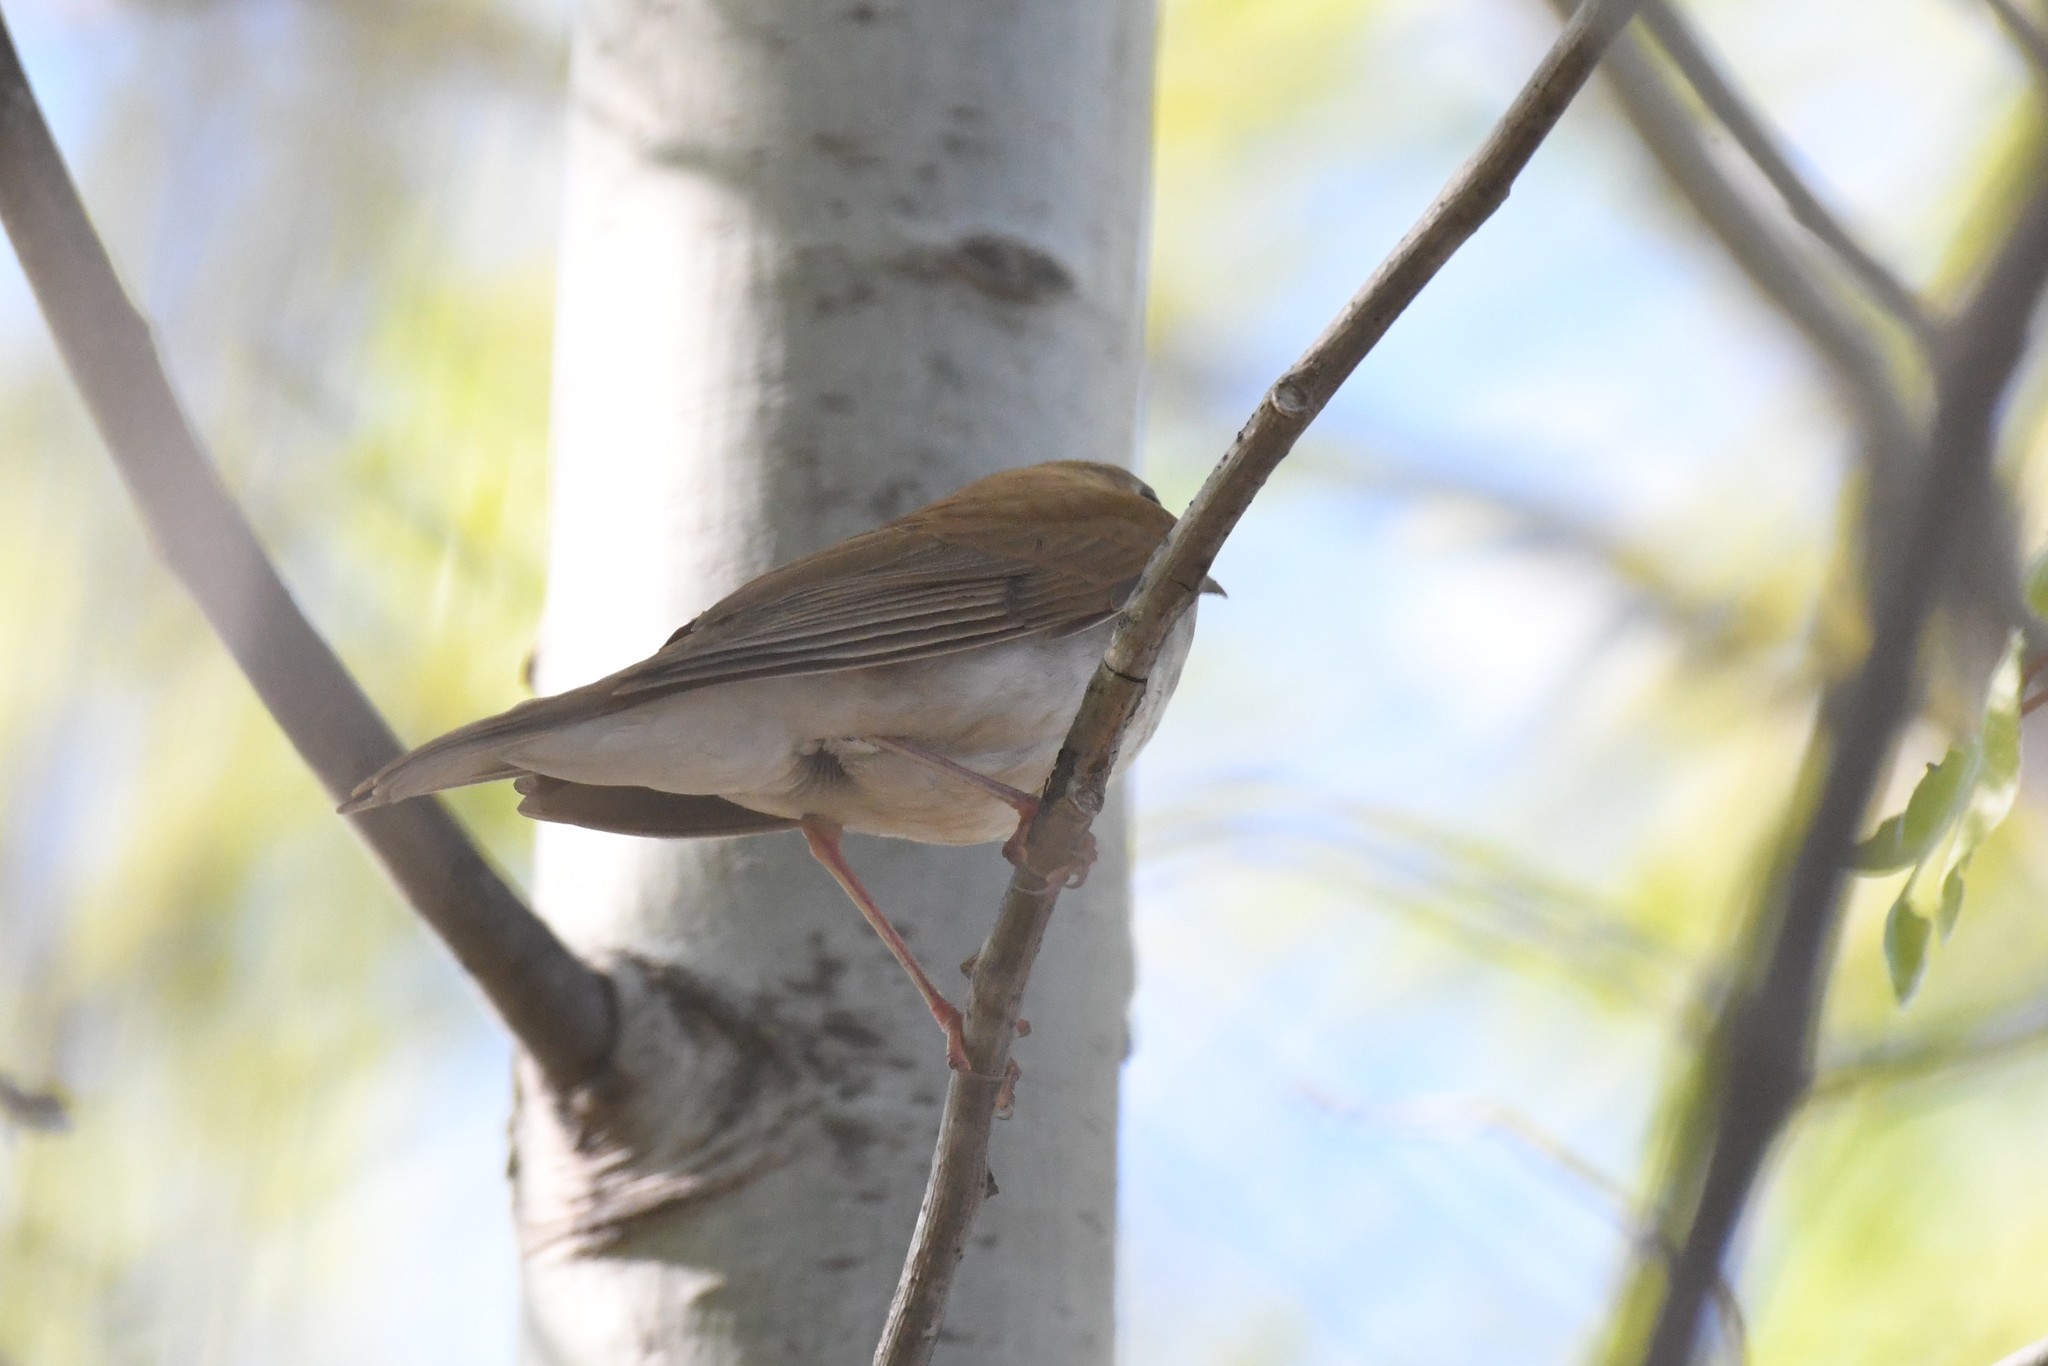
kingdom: Animalia
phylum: Chordata
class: Aves
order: Passeriformes
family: Turdidae
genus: Catharus
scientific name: Catharus fuscescens
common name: Veery
